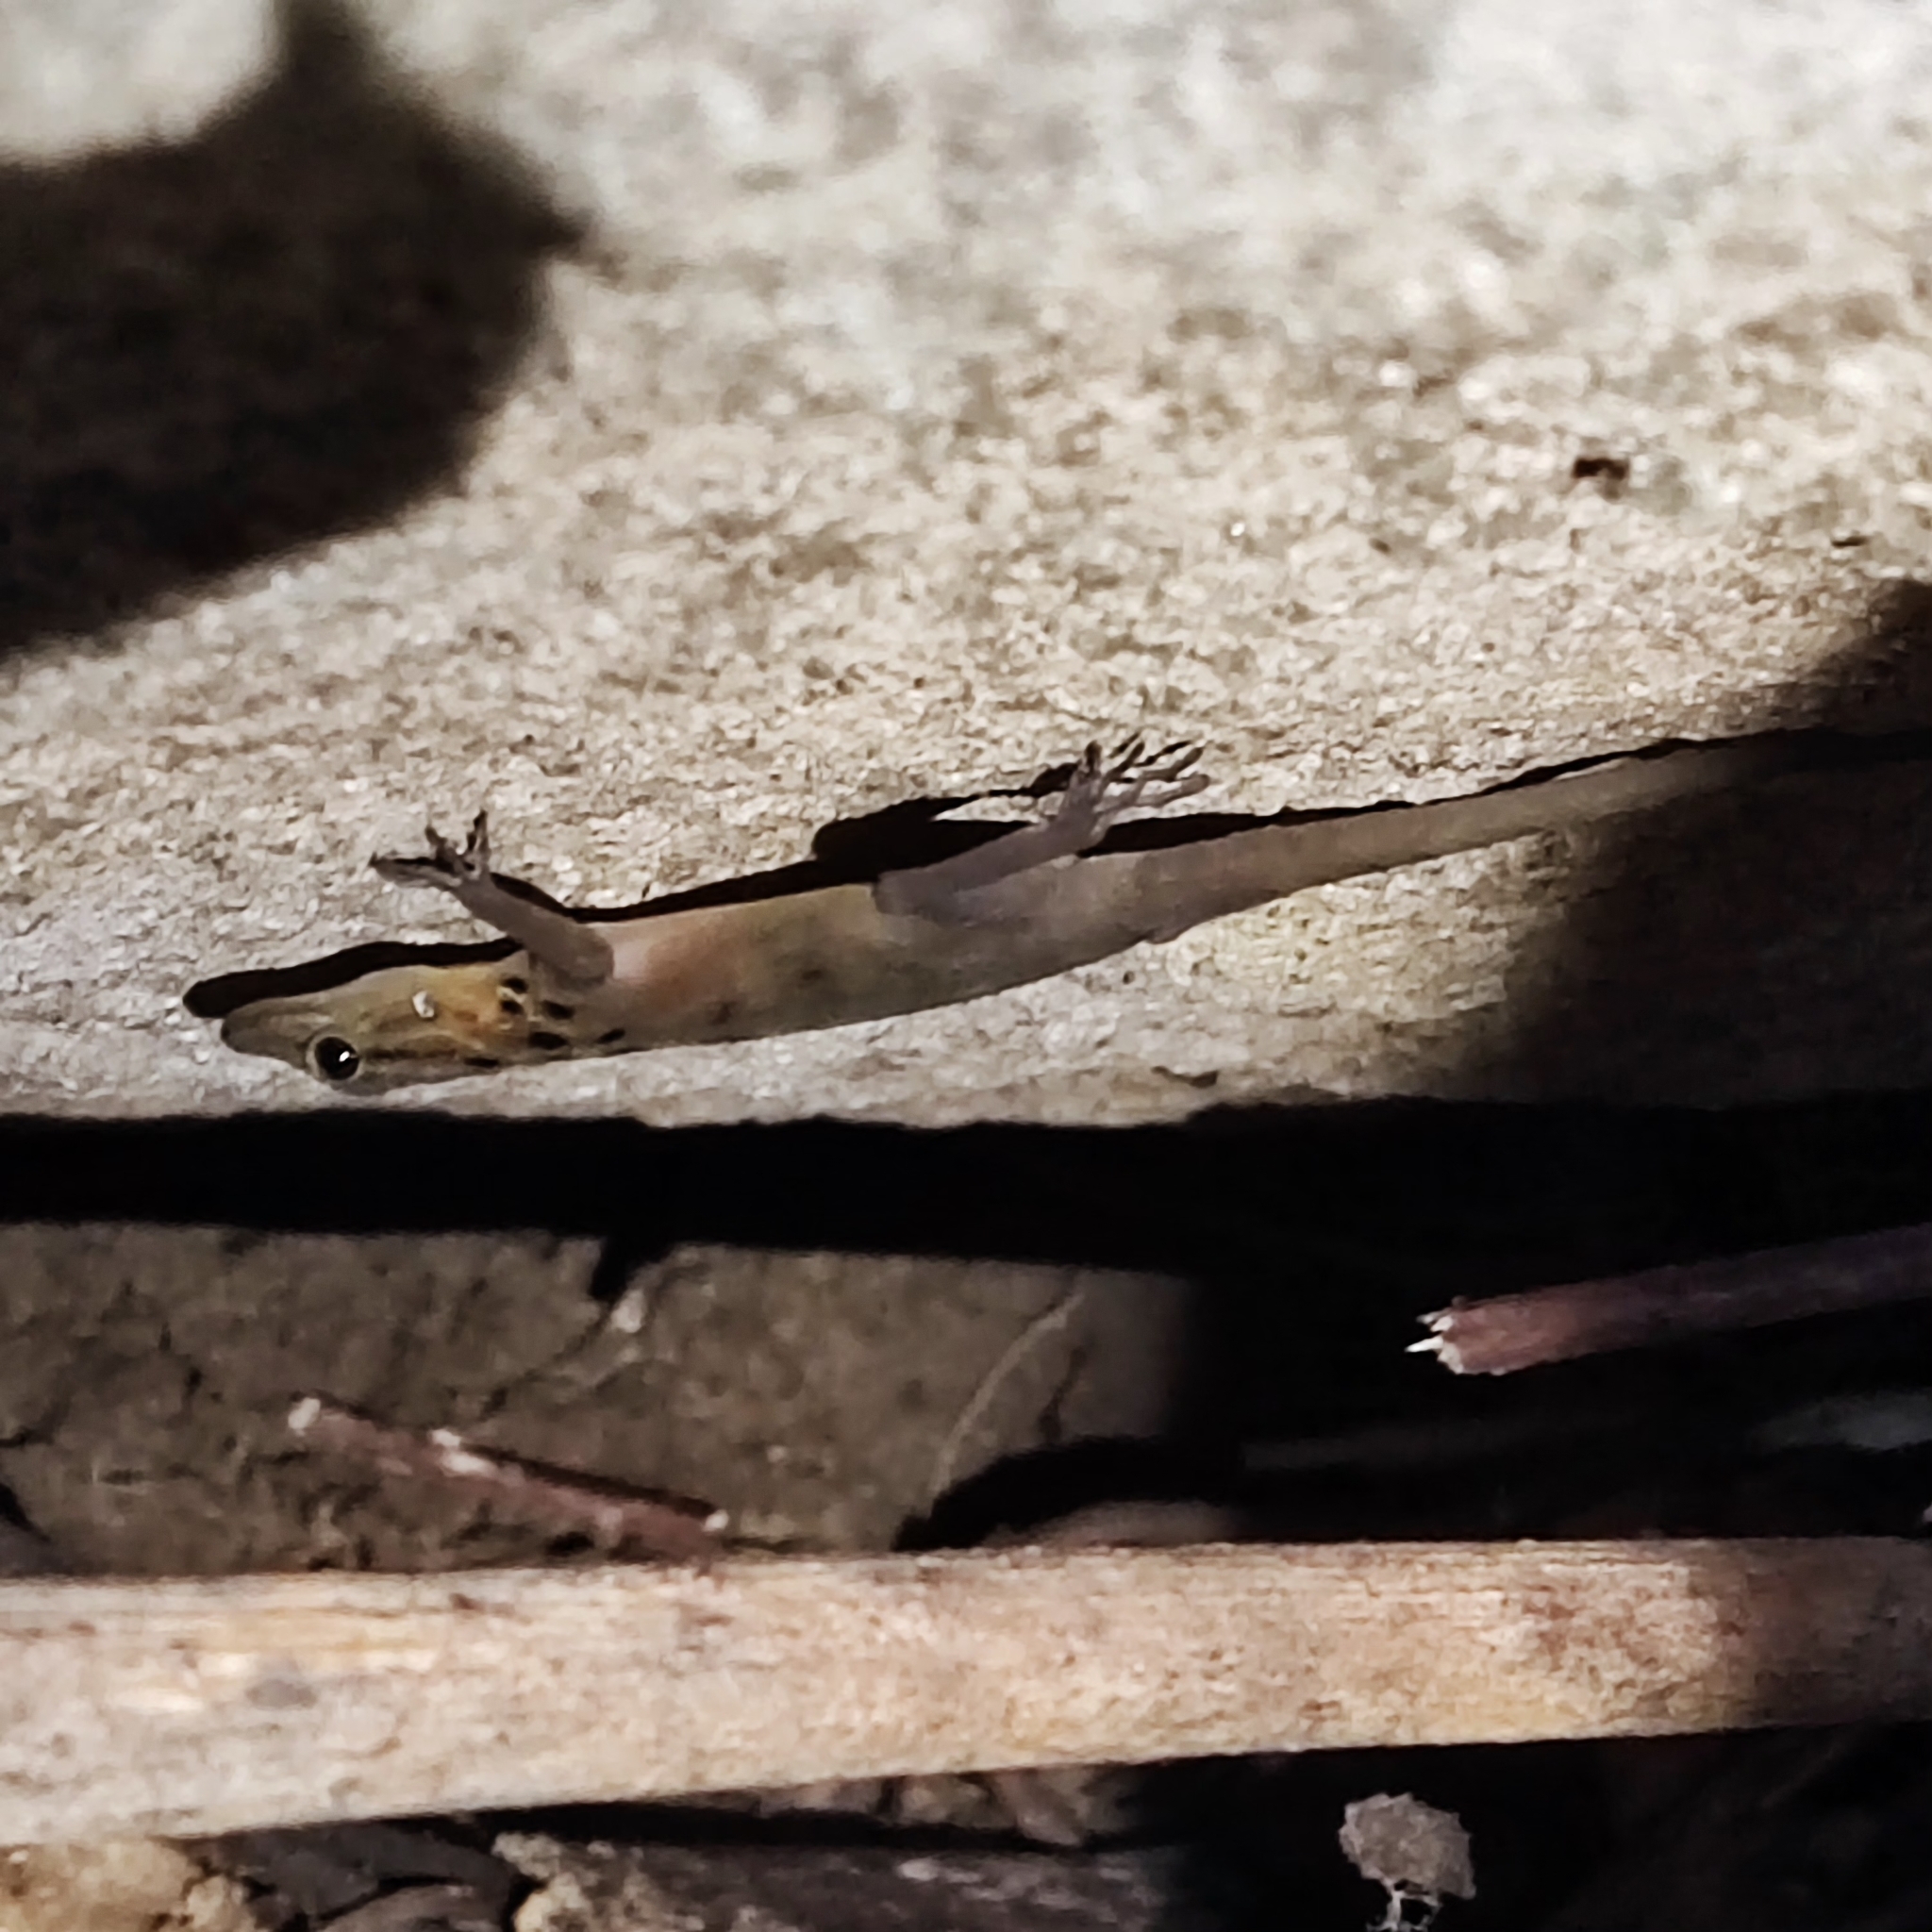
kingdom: Animalia
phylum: Chordata
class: Squamata
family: Gekkonidae
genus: Cnemaspis
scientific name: Cnemaspis boulengeri
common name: Boulenger's rock gecko
